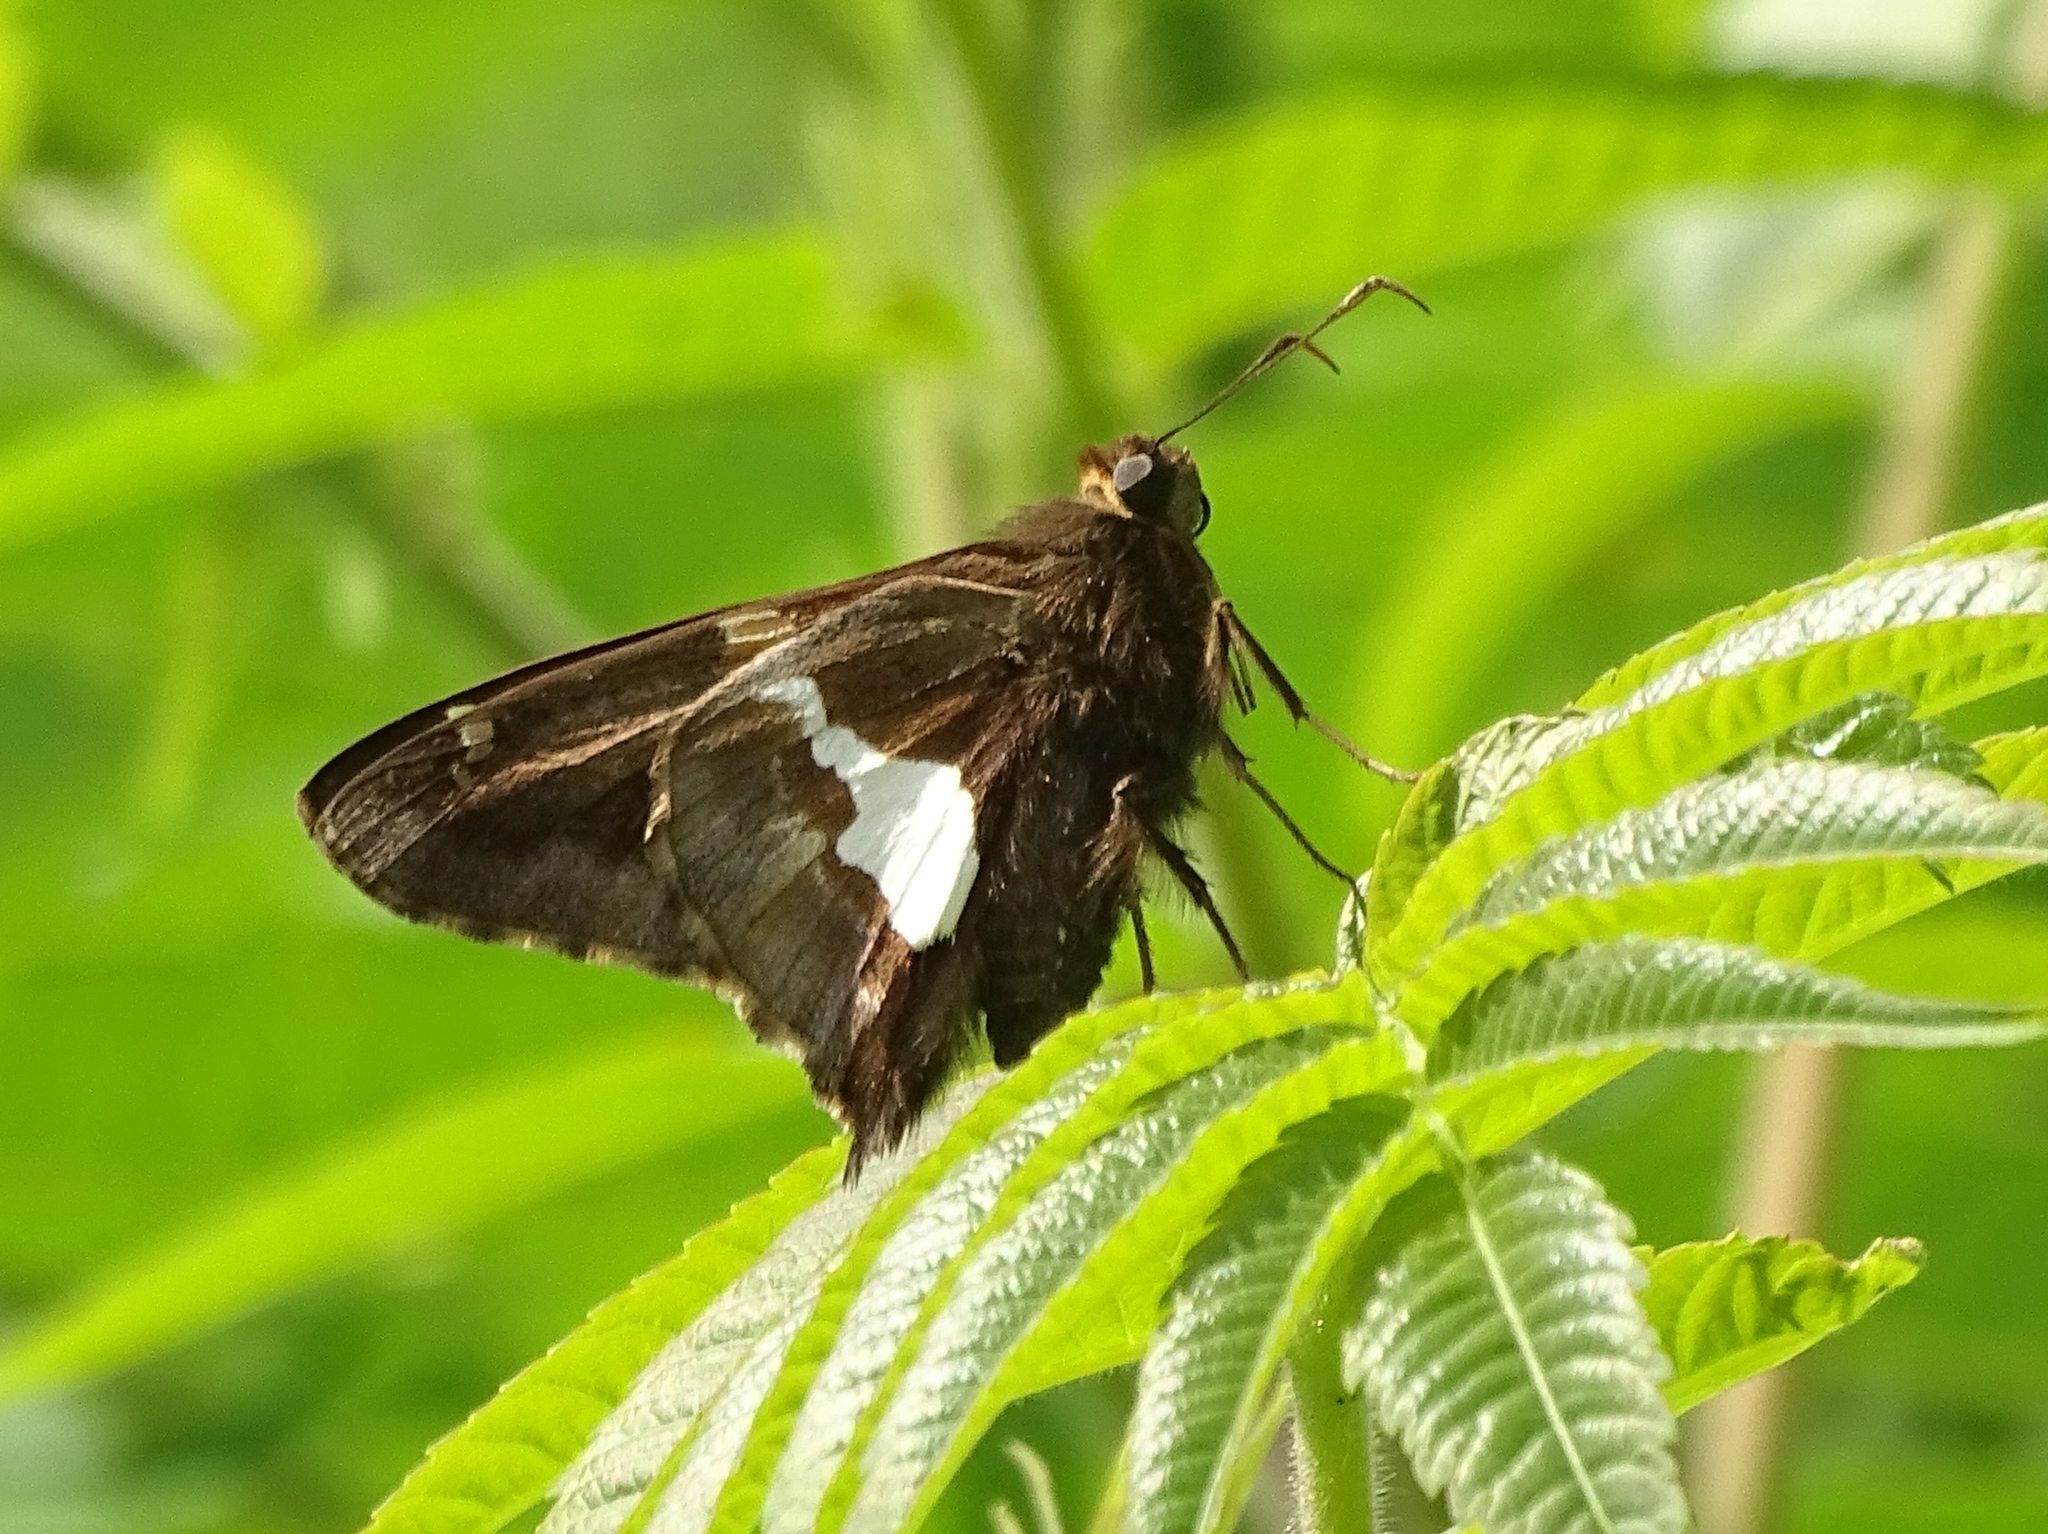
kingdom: Animalia
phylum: Arthropoda
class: Insecta
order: Lepidoptera
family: Hesperiidae
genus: Epargyreus
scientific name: Epargyreus clarus
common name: Silver-spotted skipper
